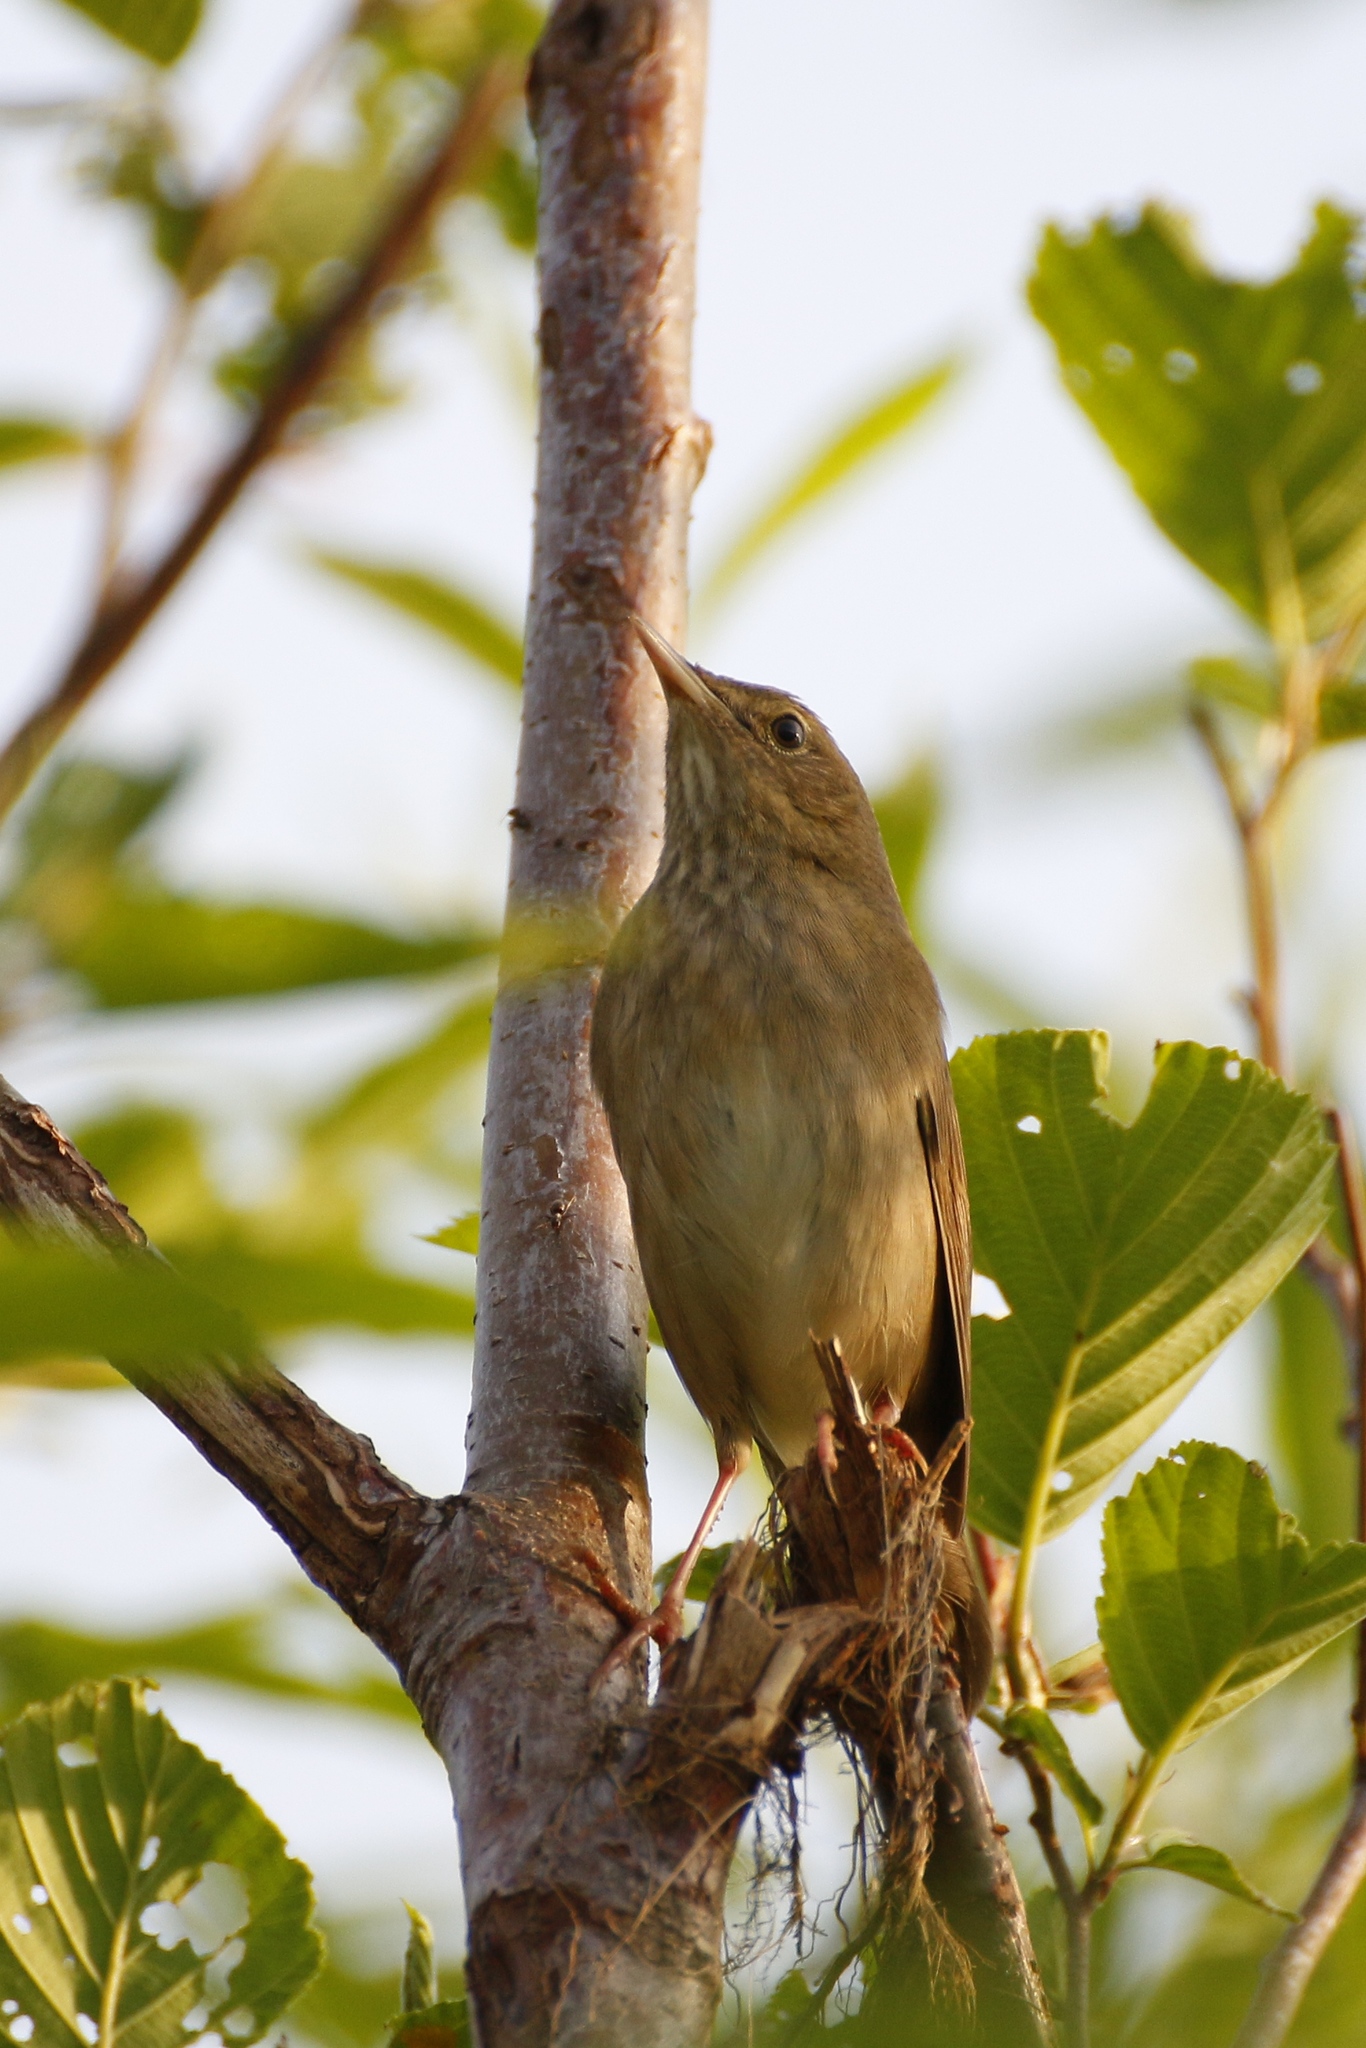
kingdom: Animalia
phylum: Chordata
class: Aves
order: Passeriformes
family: Locustellidae
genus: Locustella
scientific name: Locustella fluviatilis
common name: River warbler
